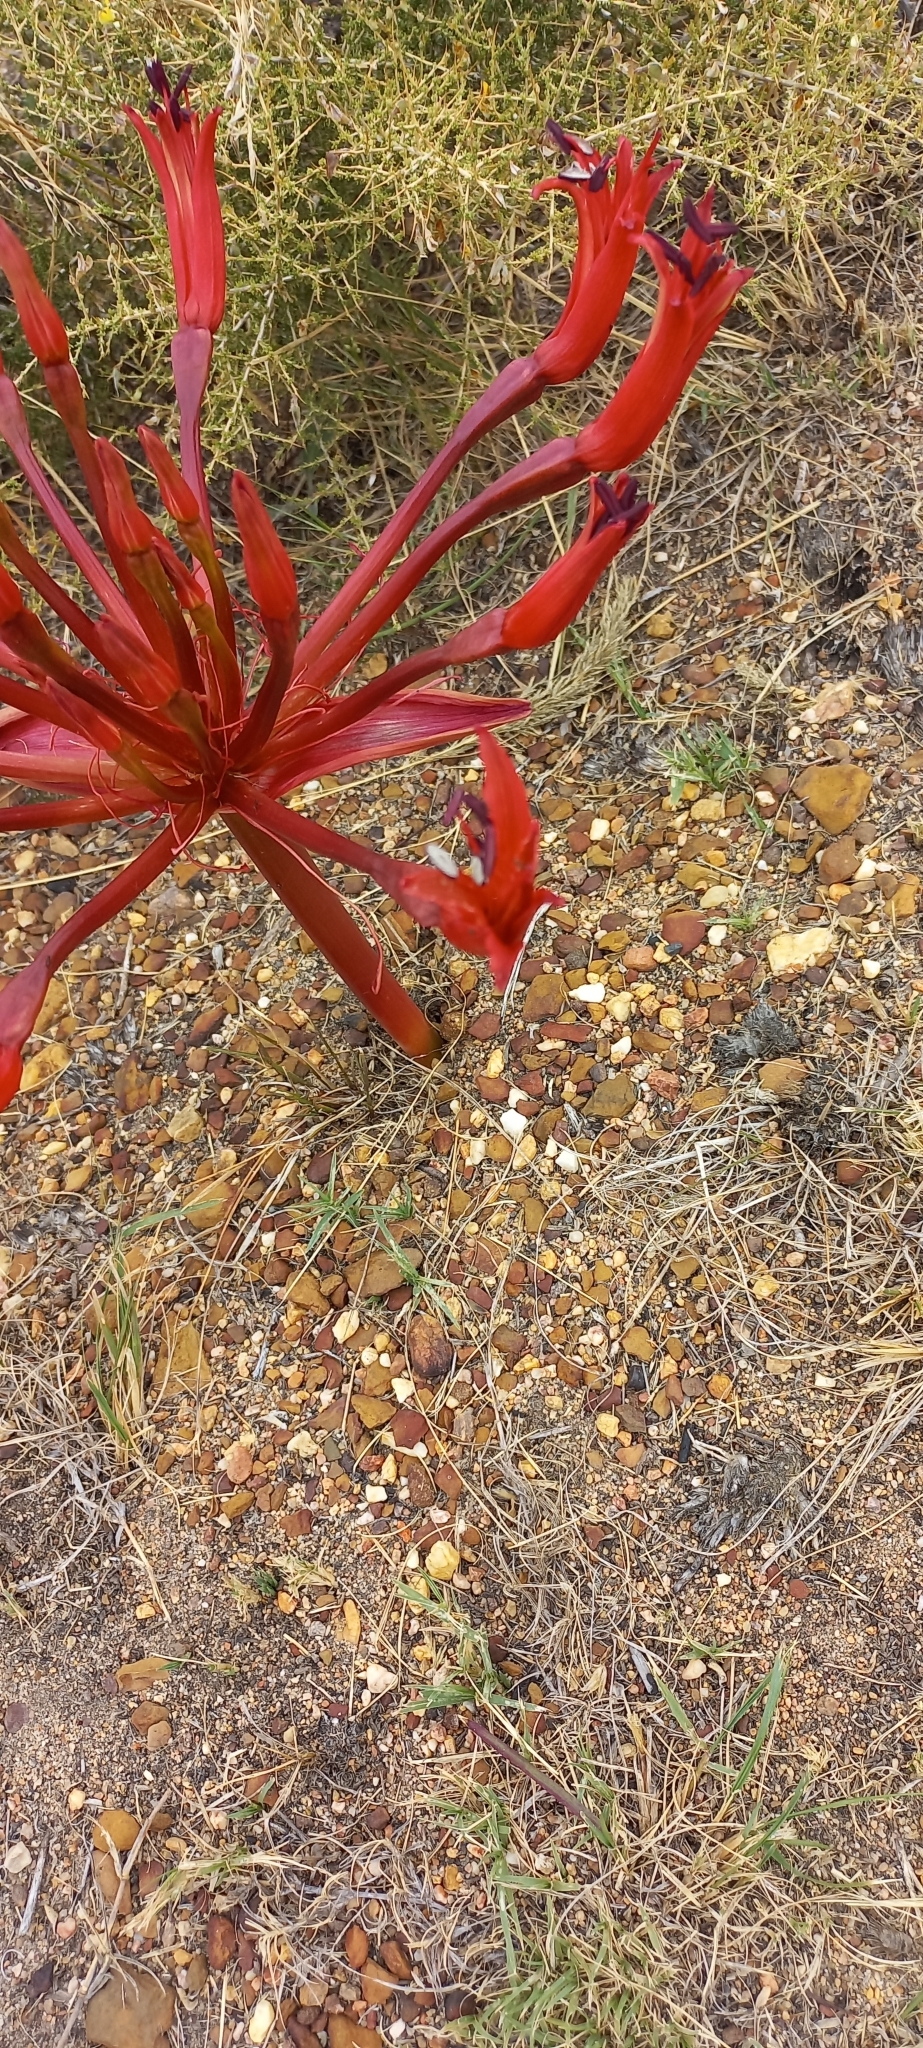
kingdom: Plantae
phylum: Tracheophyta
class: Liliopsida
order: Asparagales
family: Amaryllidaceae
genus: Brunsvigia
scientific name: Brunsvigia orientalis
